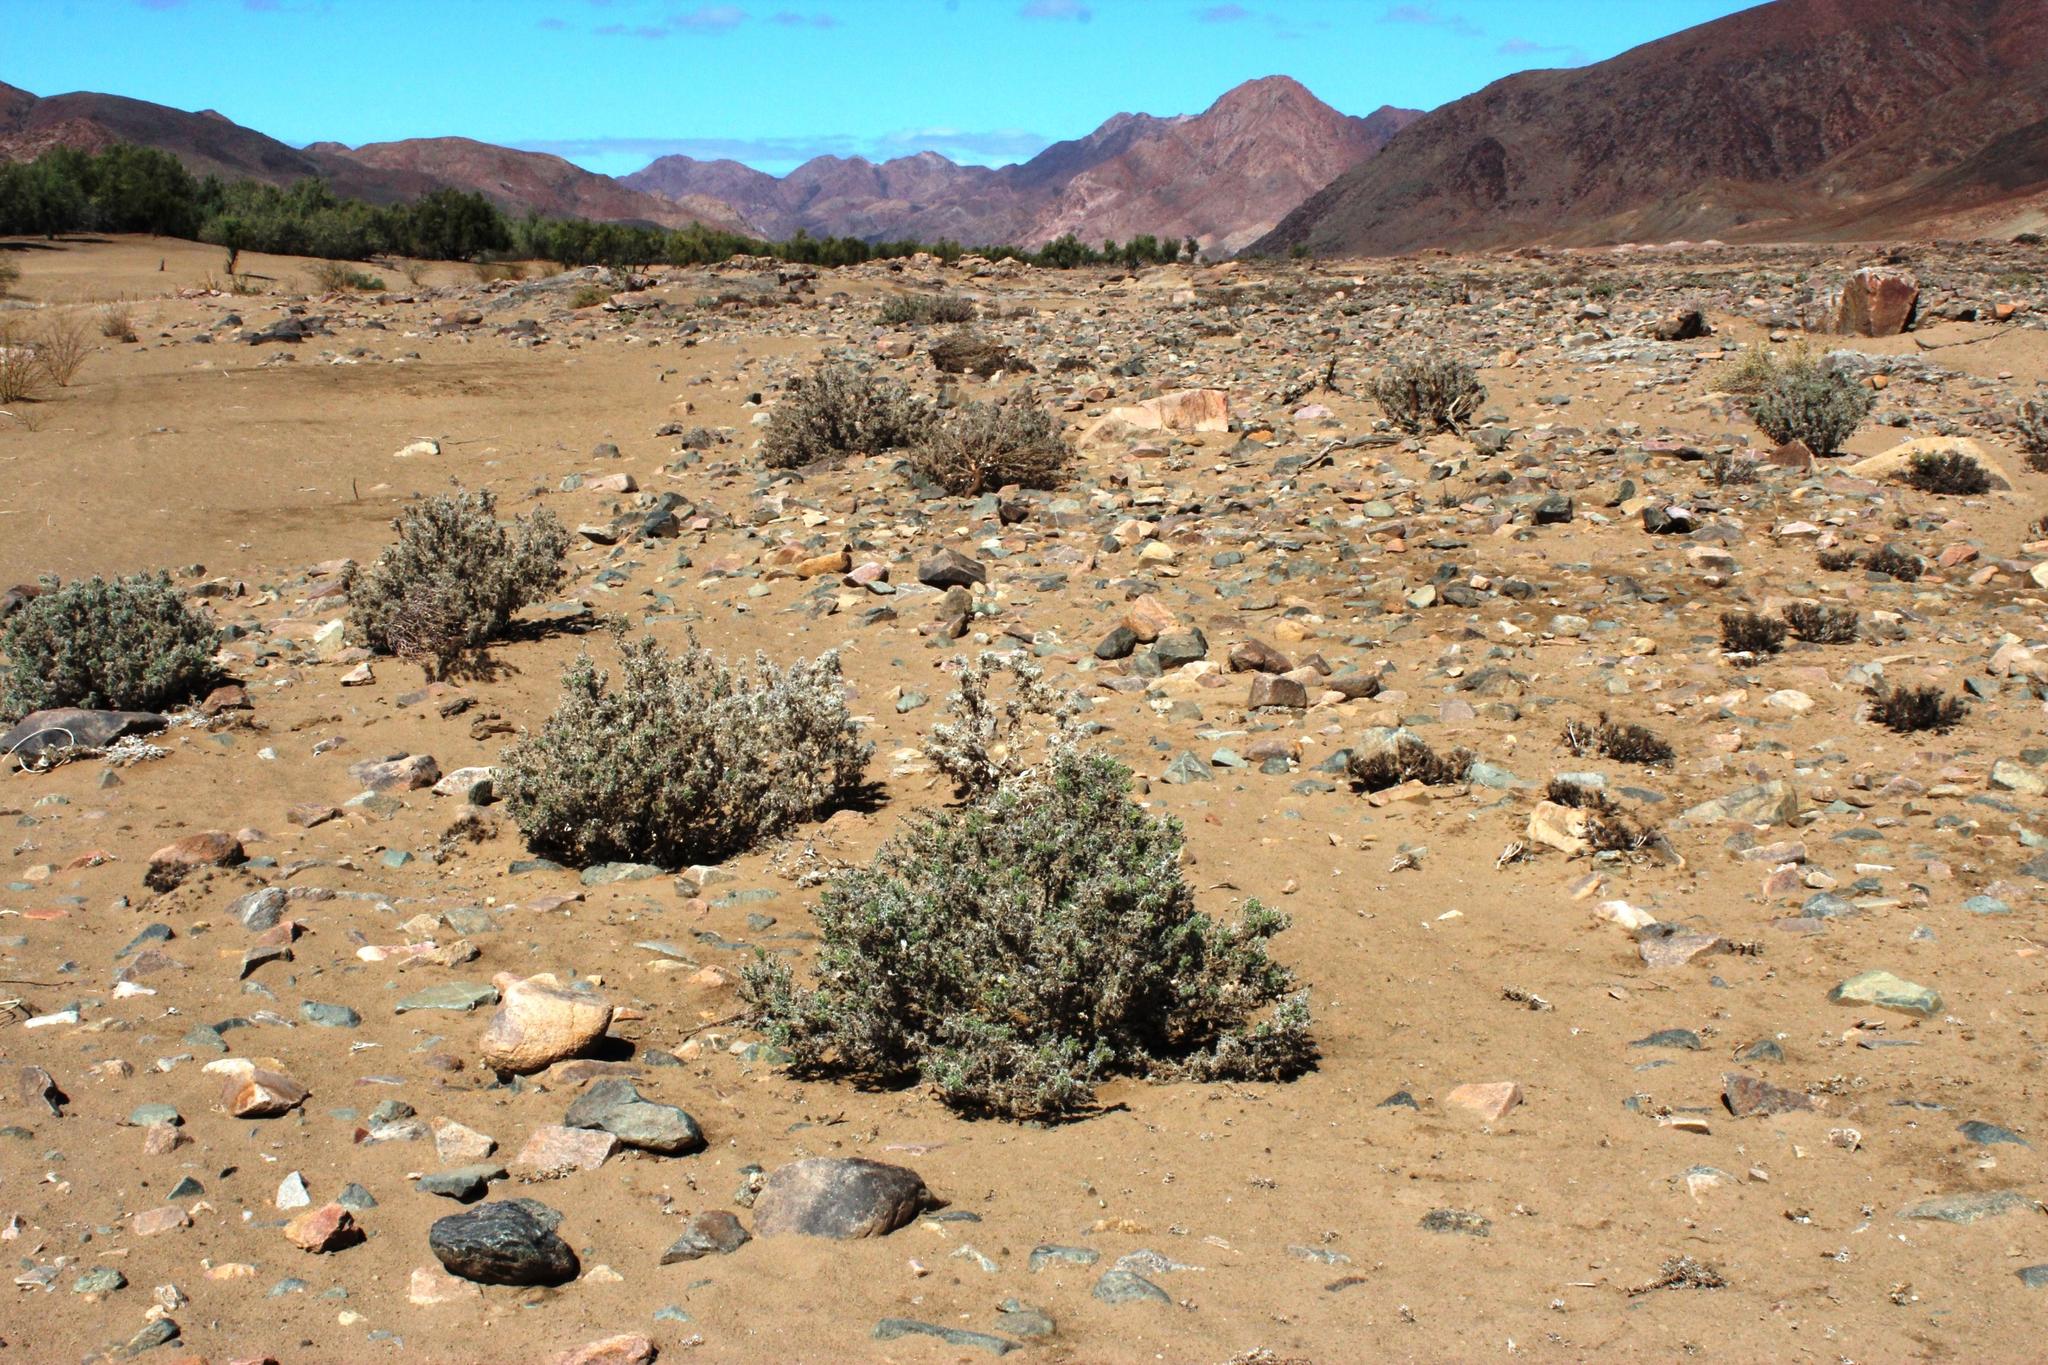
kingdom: Plantae
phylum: Tracheophyta
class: Magnoliopsida
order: Boraginales
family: Boraginaceae
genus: Codon
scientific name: Codon royenii
